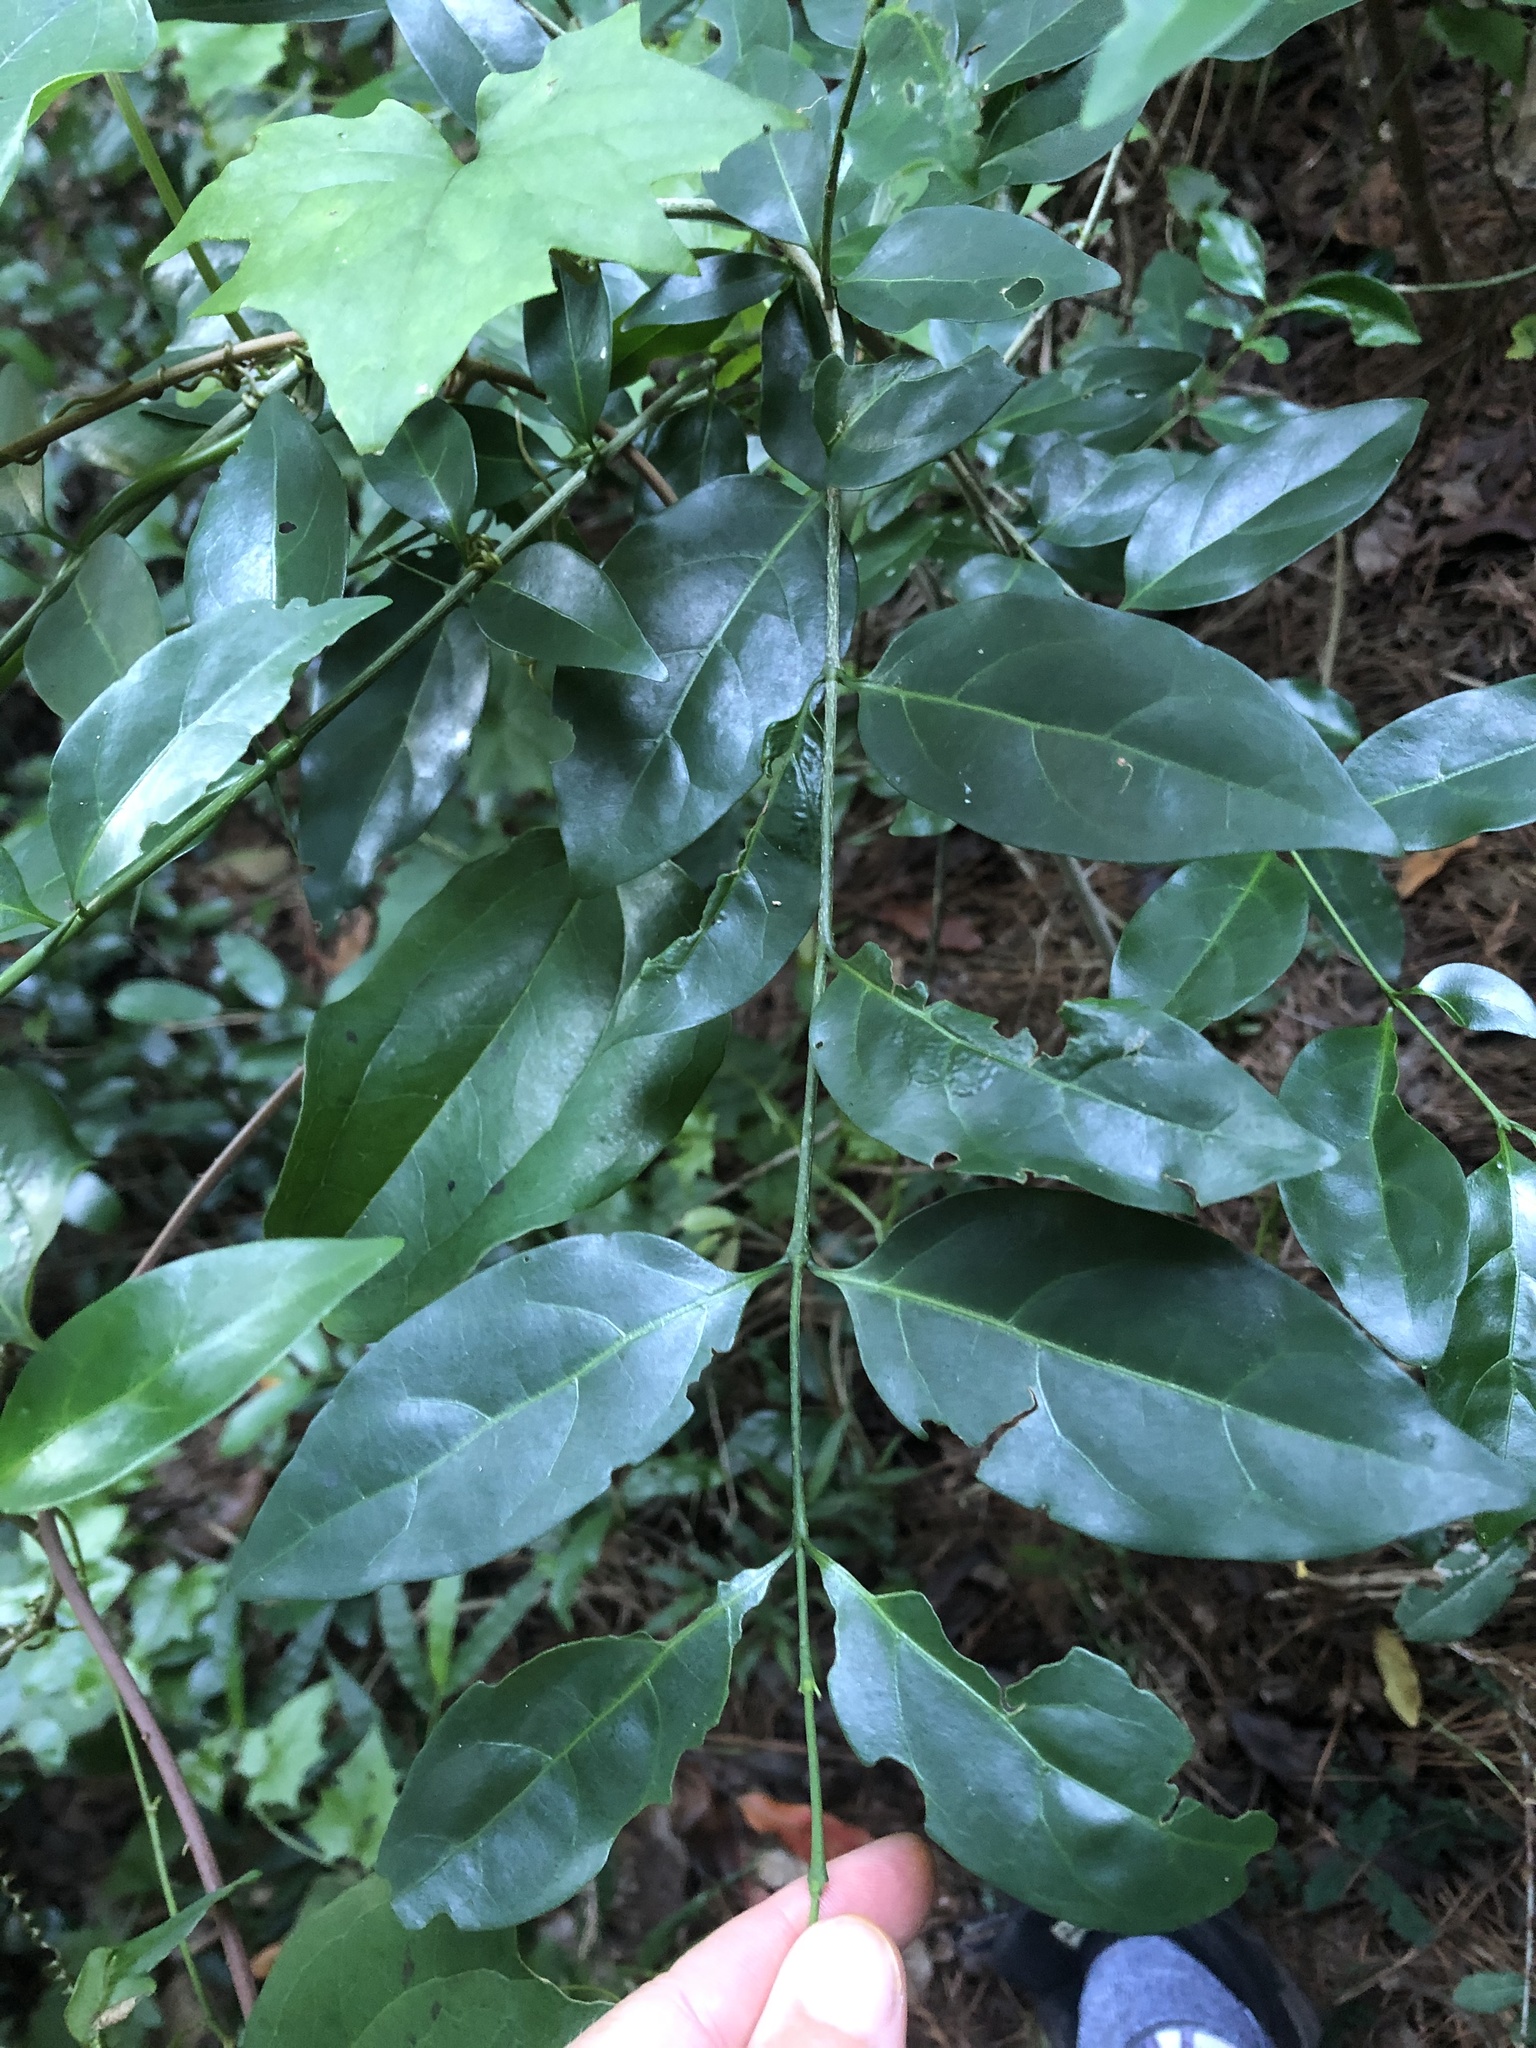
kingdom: Plantae
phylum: Tracheophyta
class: Magnoliopsida
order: Gentianales
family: Rubiaceae
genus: Canthium
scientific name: Canthium inerme
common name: Unarmed turkey-berry
